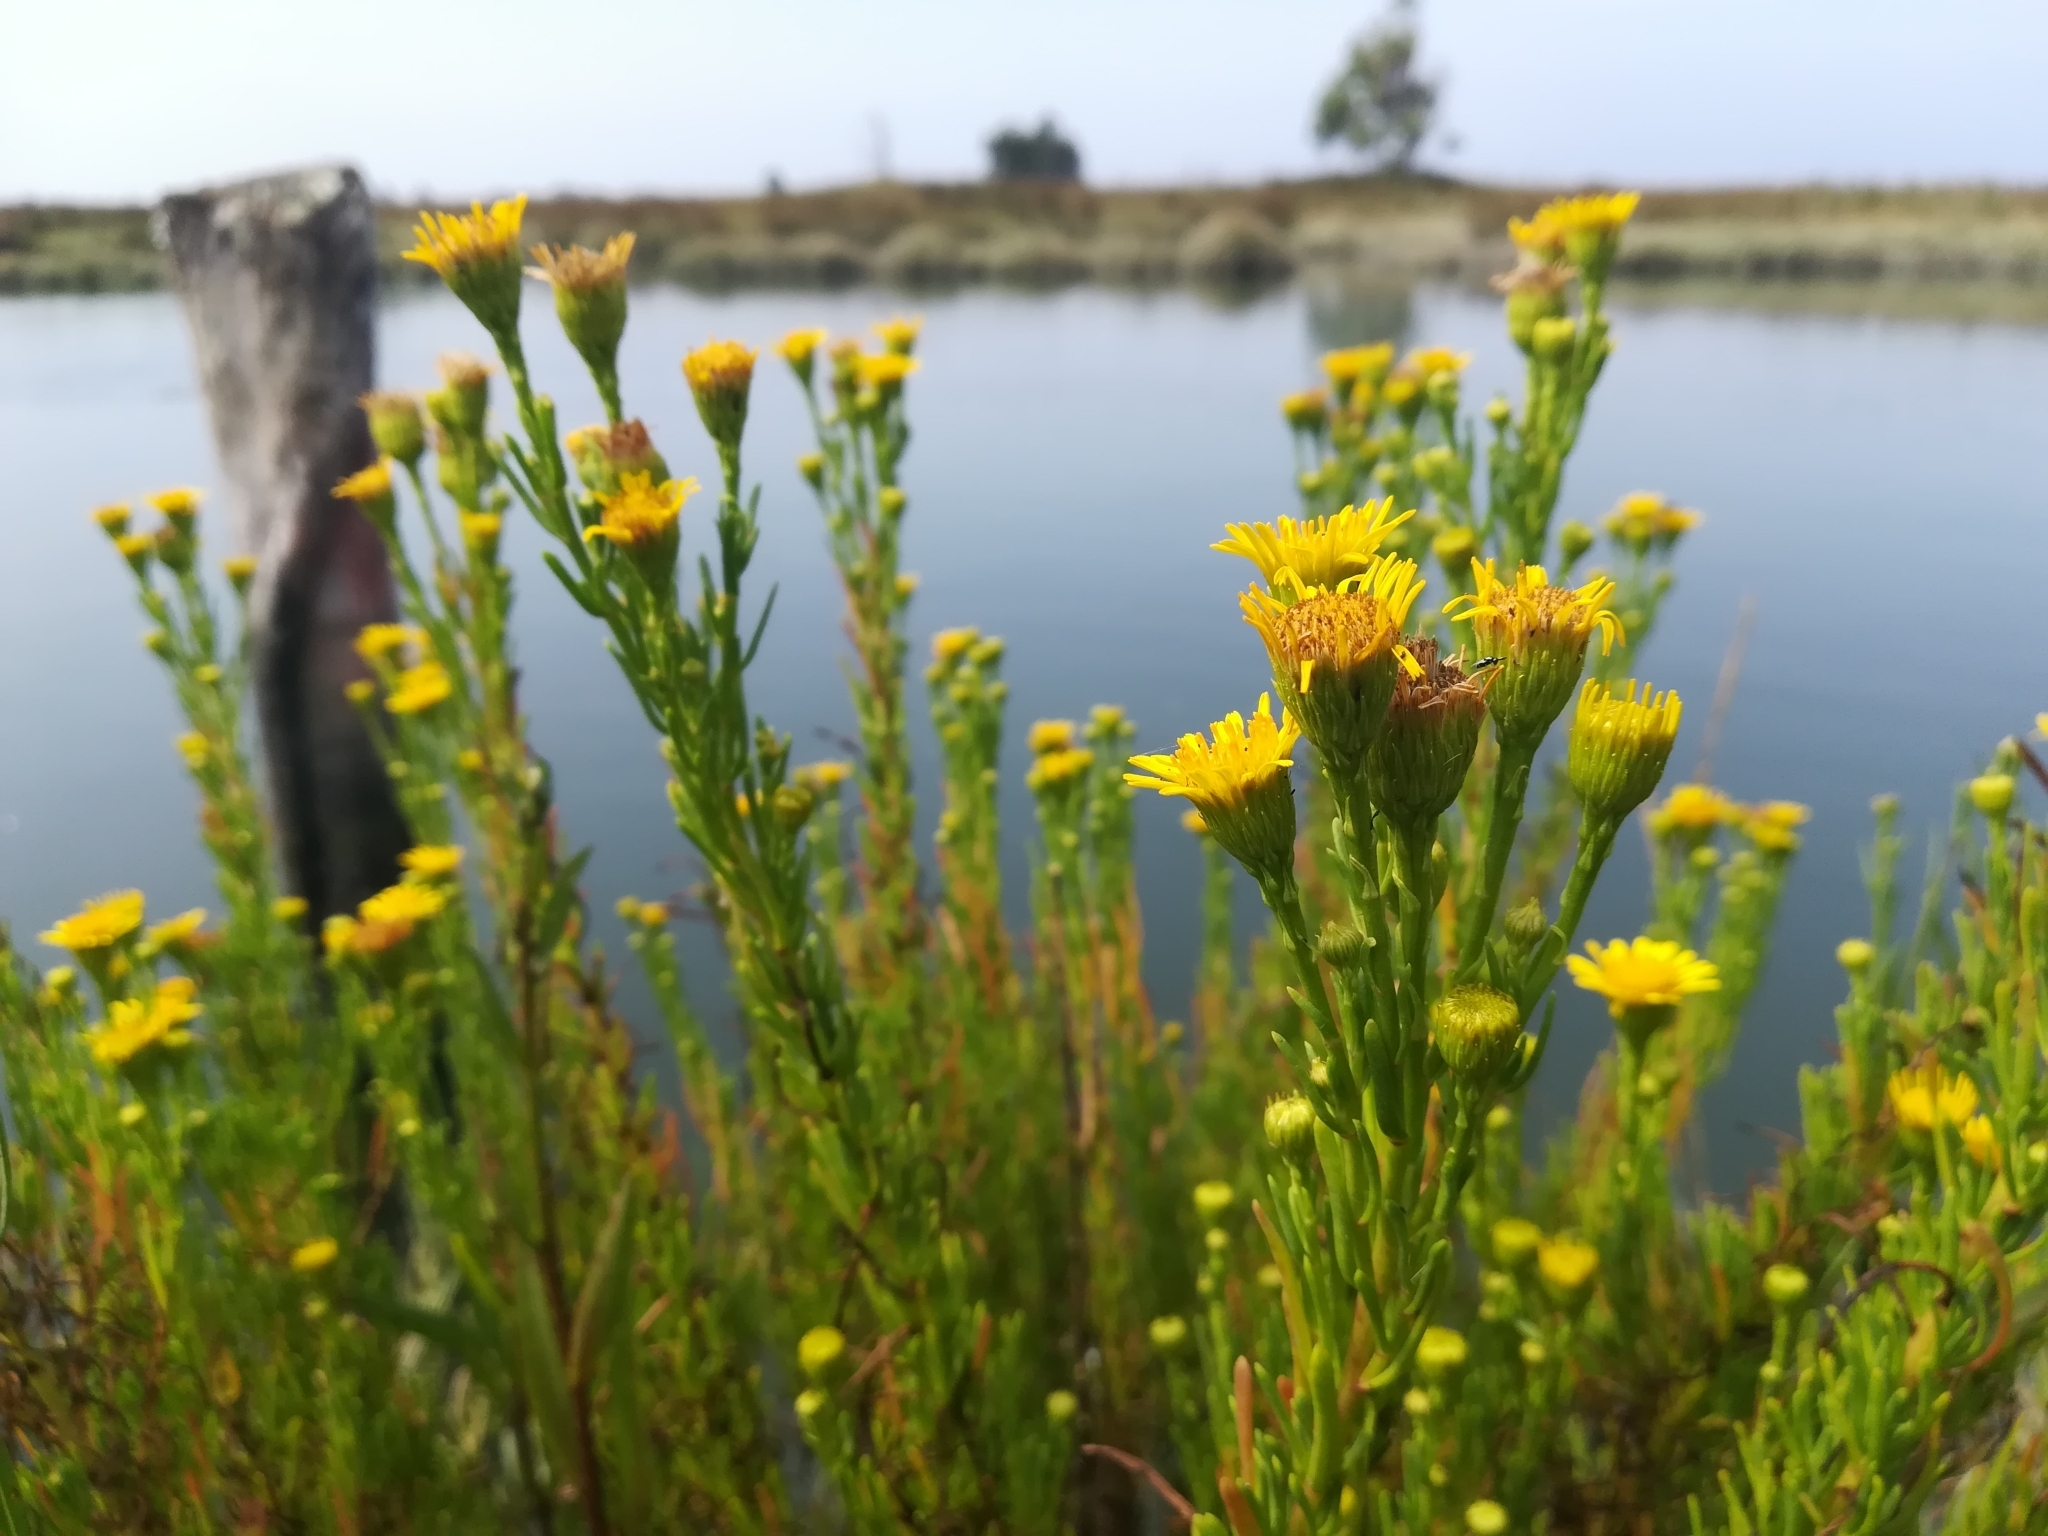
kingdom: Plantae
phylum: Tracheophyta
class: Magnoliopsida
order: Asterales
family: Asteraceae
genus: Limbarda
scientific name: Limbarda crithmoides
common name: Golden samphire
